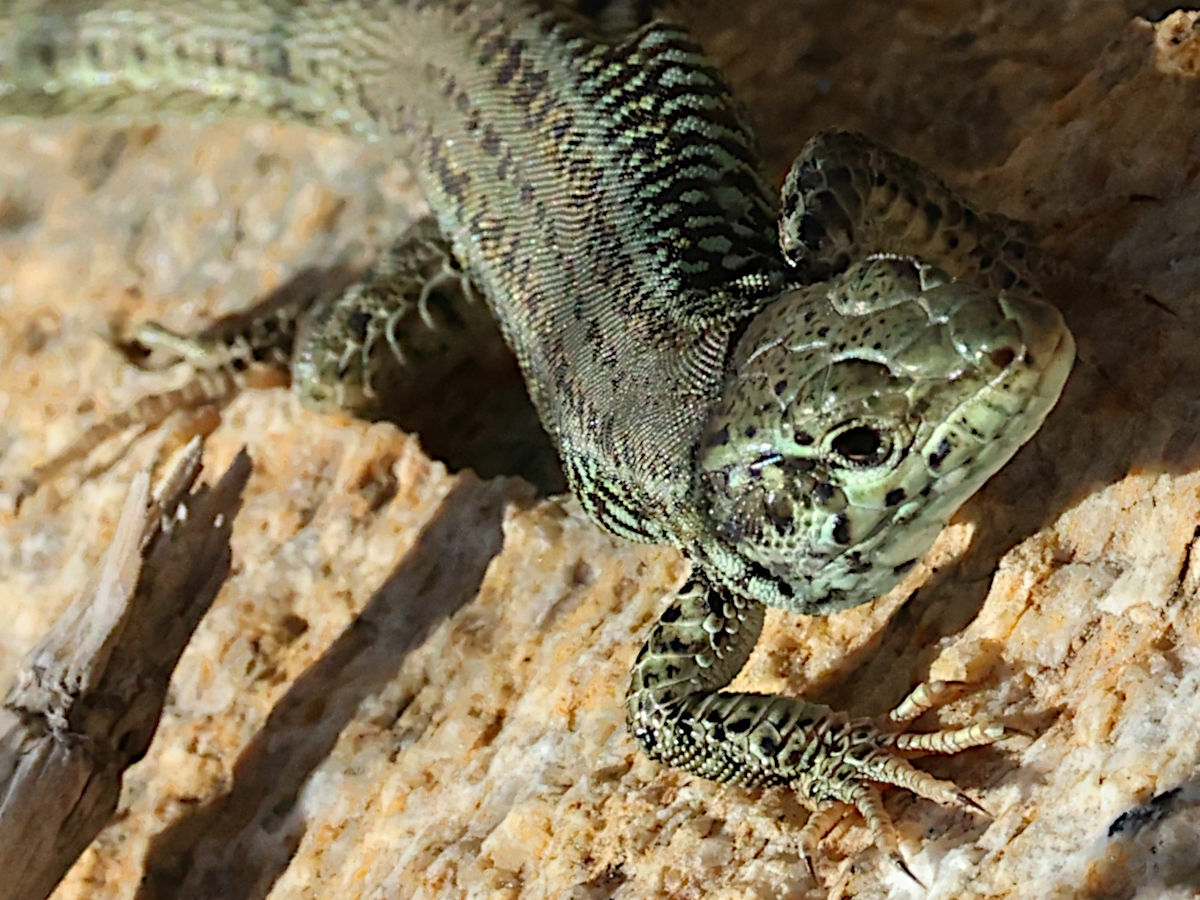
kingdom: Animalia
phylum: Chordata
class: Squamata
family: Lacertidae
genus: Podarcis
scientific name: Podarcis erhardii
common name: Erhard's wall lizard
